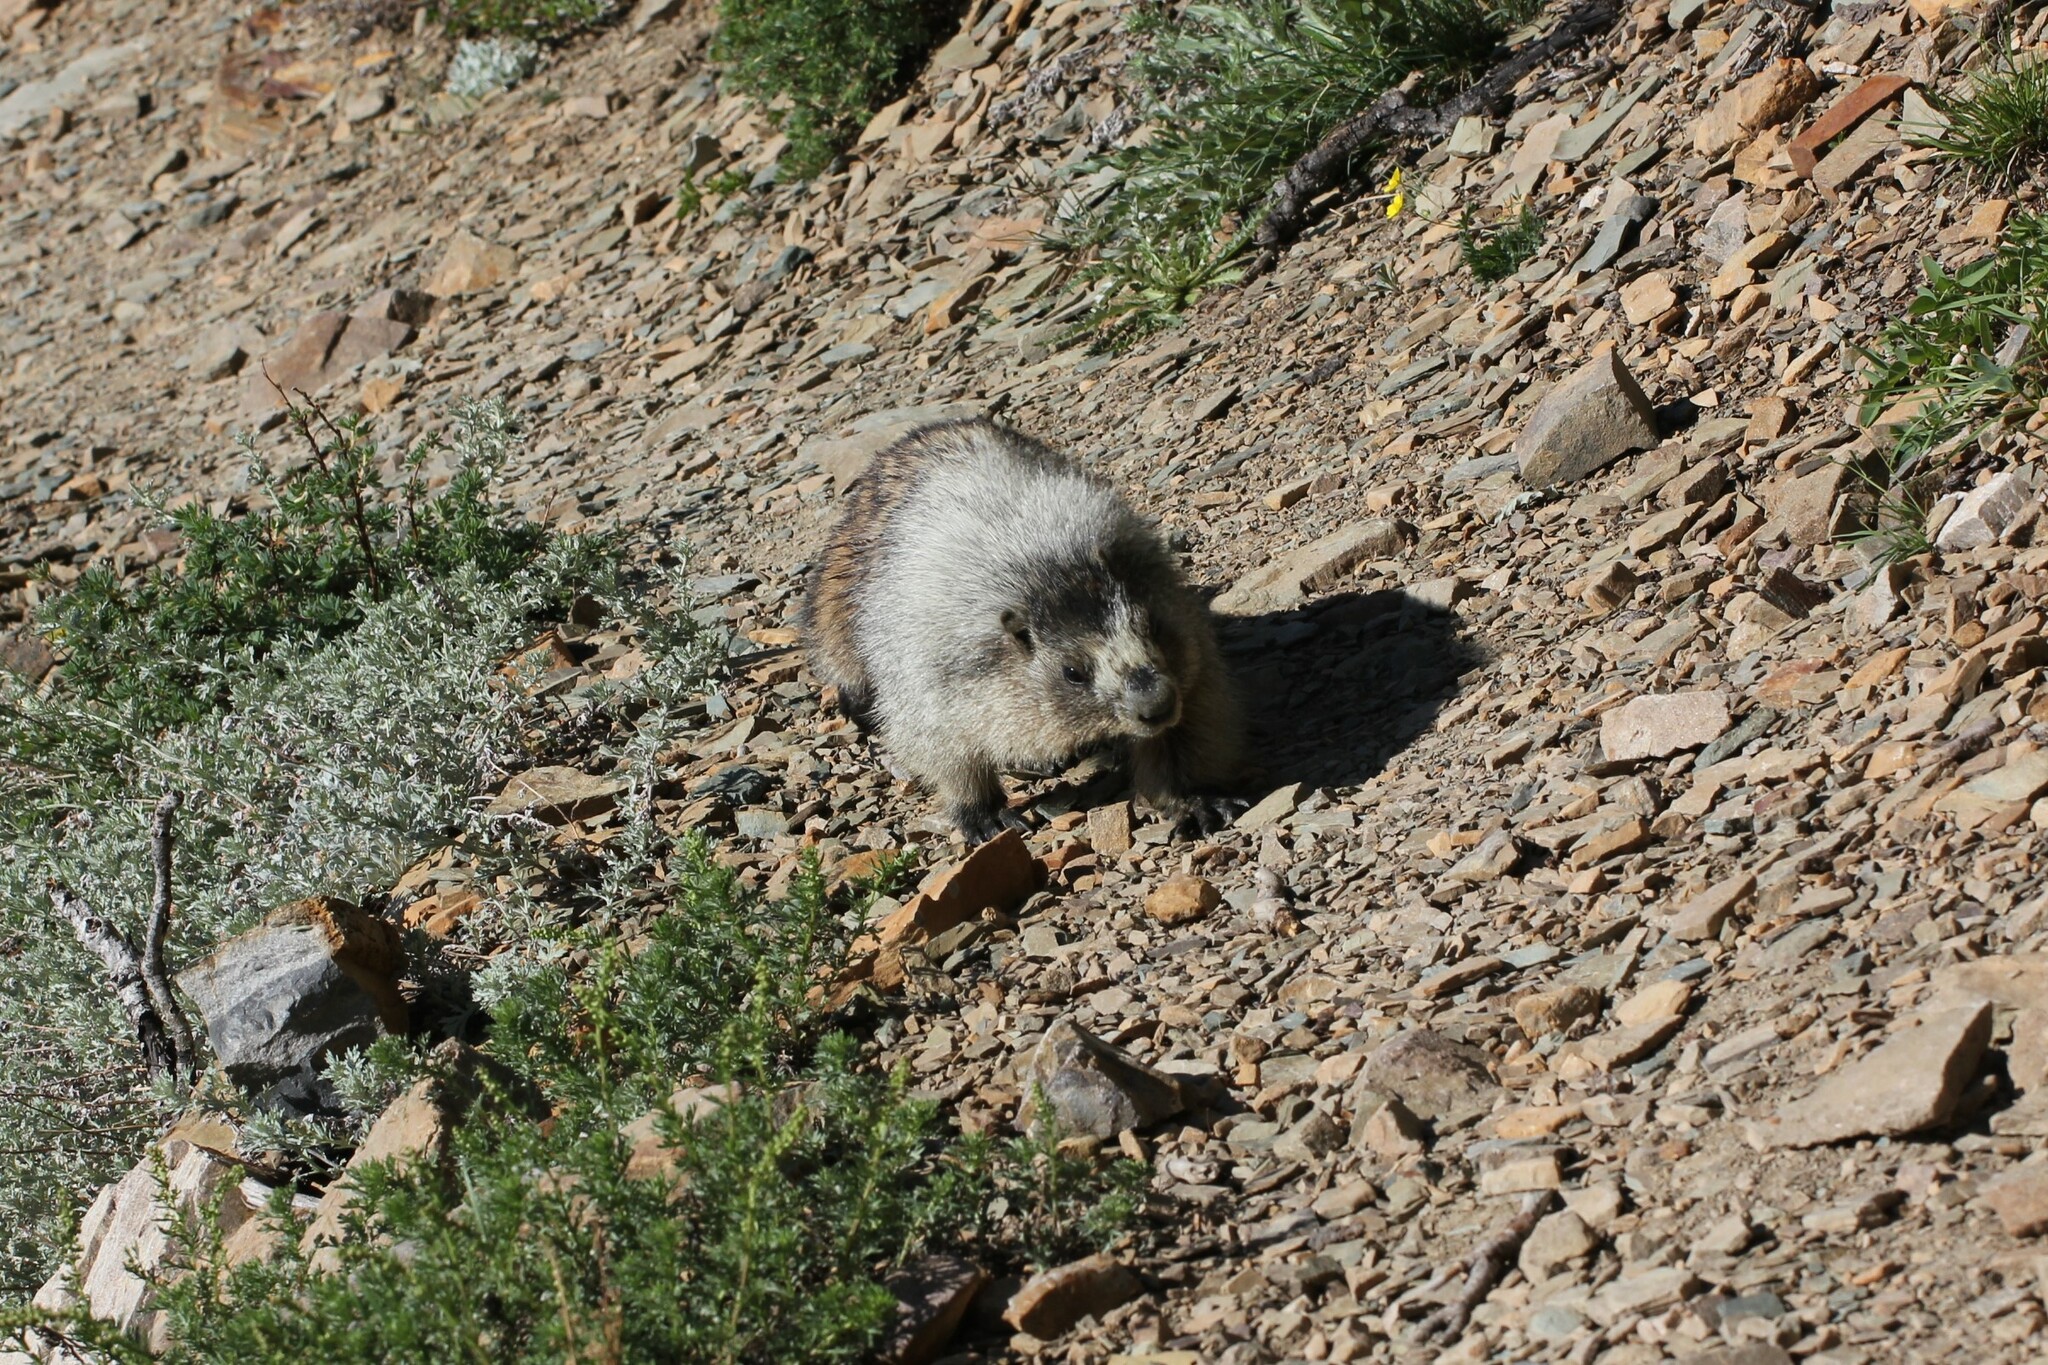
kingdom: Animalia
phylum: Chordata
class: Mammalia
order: Rodentia
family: Sciuridae
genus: Marmota
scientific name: Marmota caligata
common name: Hoary marmot
